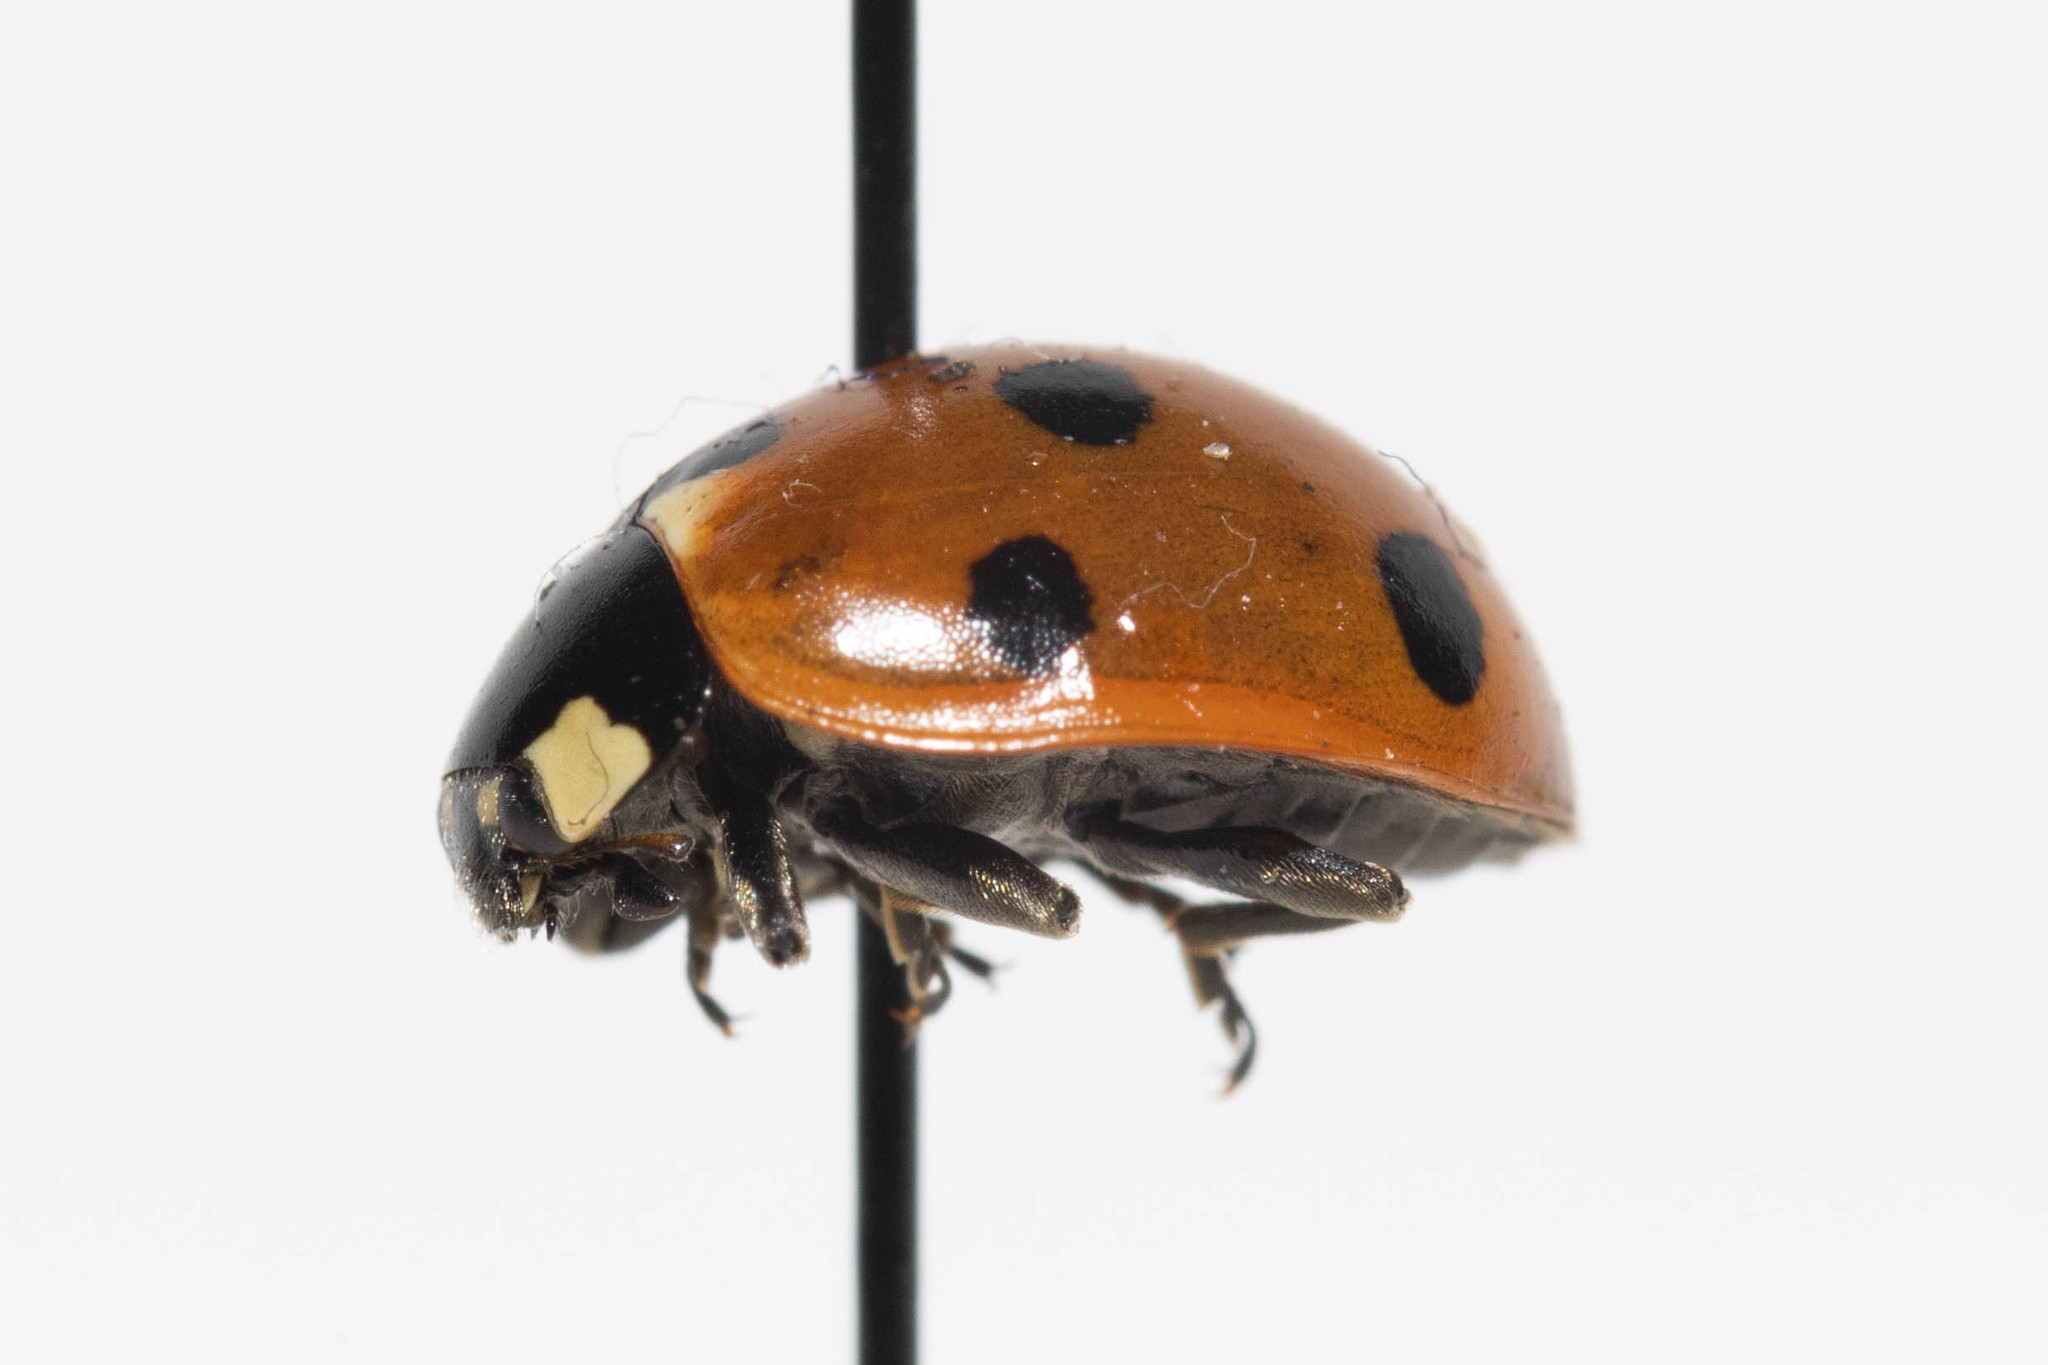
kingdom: Animalia
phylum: Arthropoda
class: Insecta
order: Coleoptera
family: Coccinellidae
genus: Coccinella
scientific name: Coccinella septempunctata
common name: Sevenspotted lady beetle
